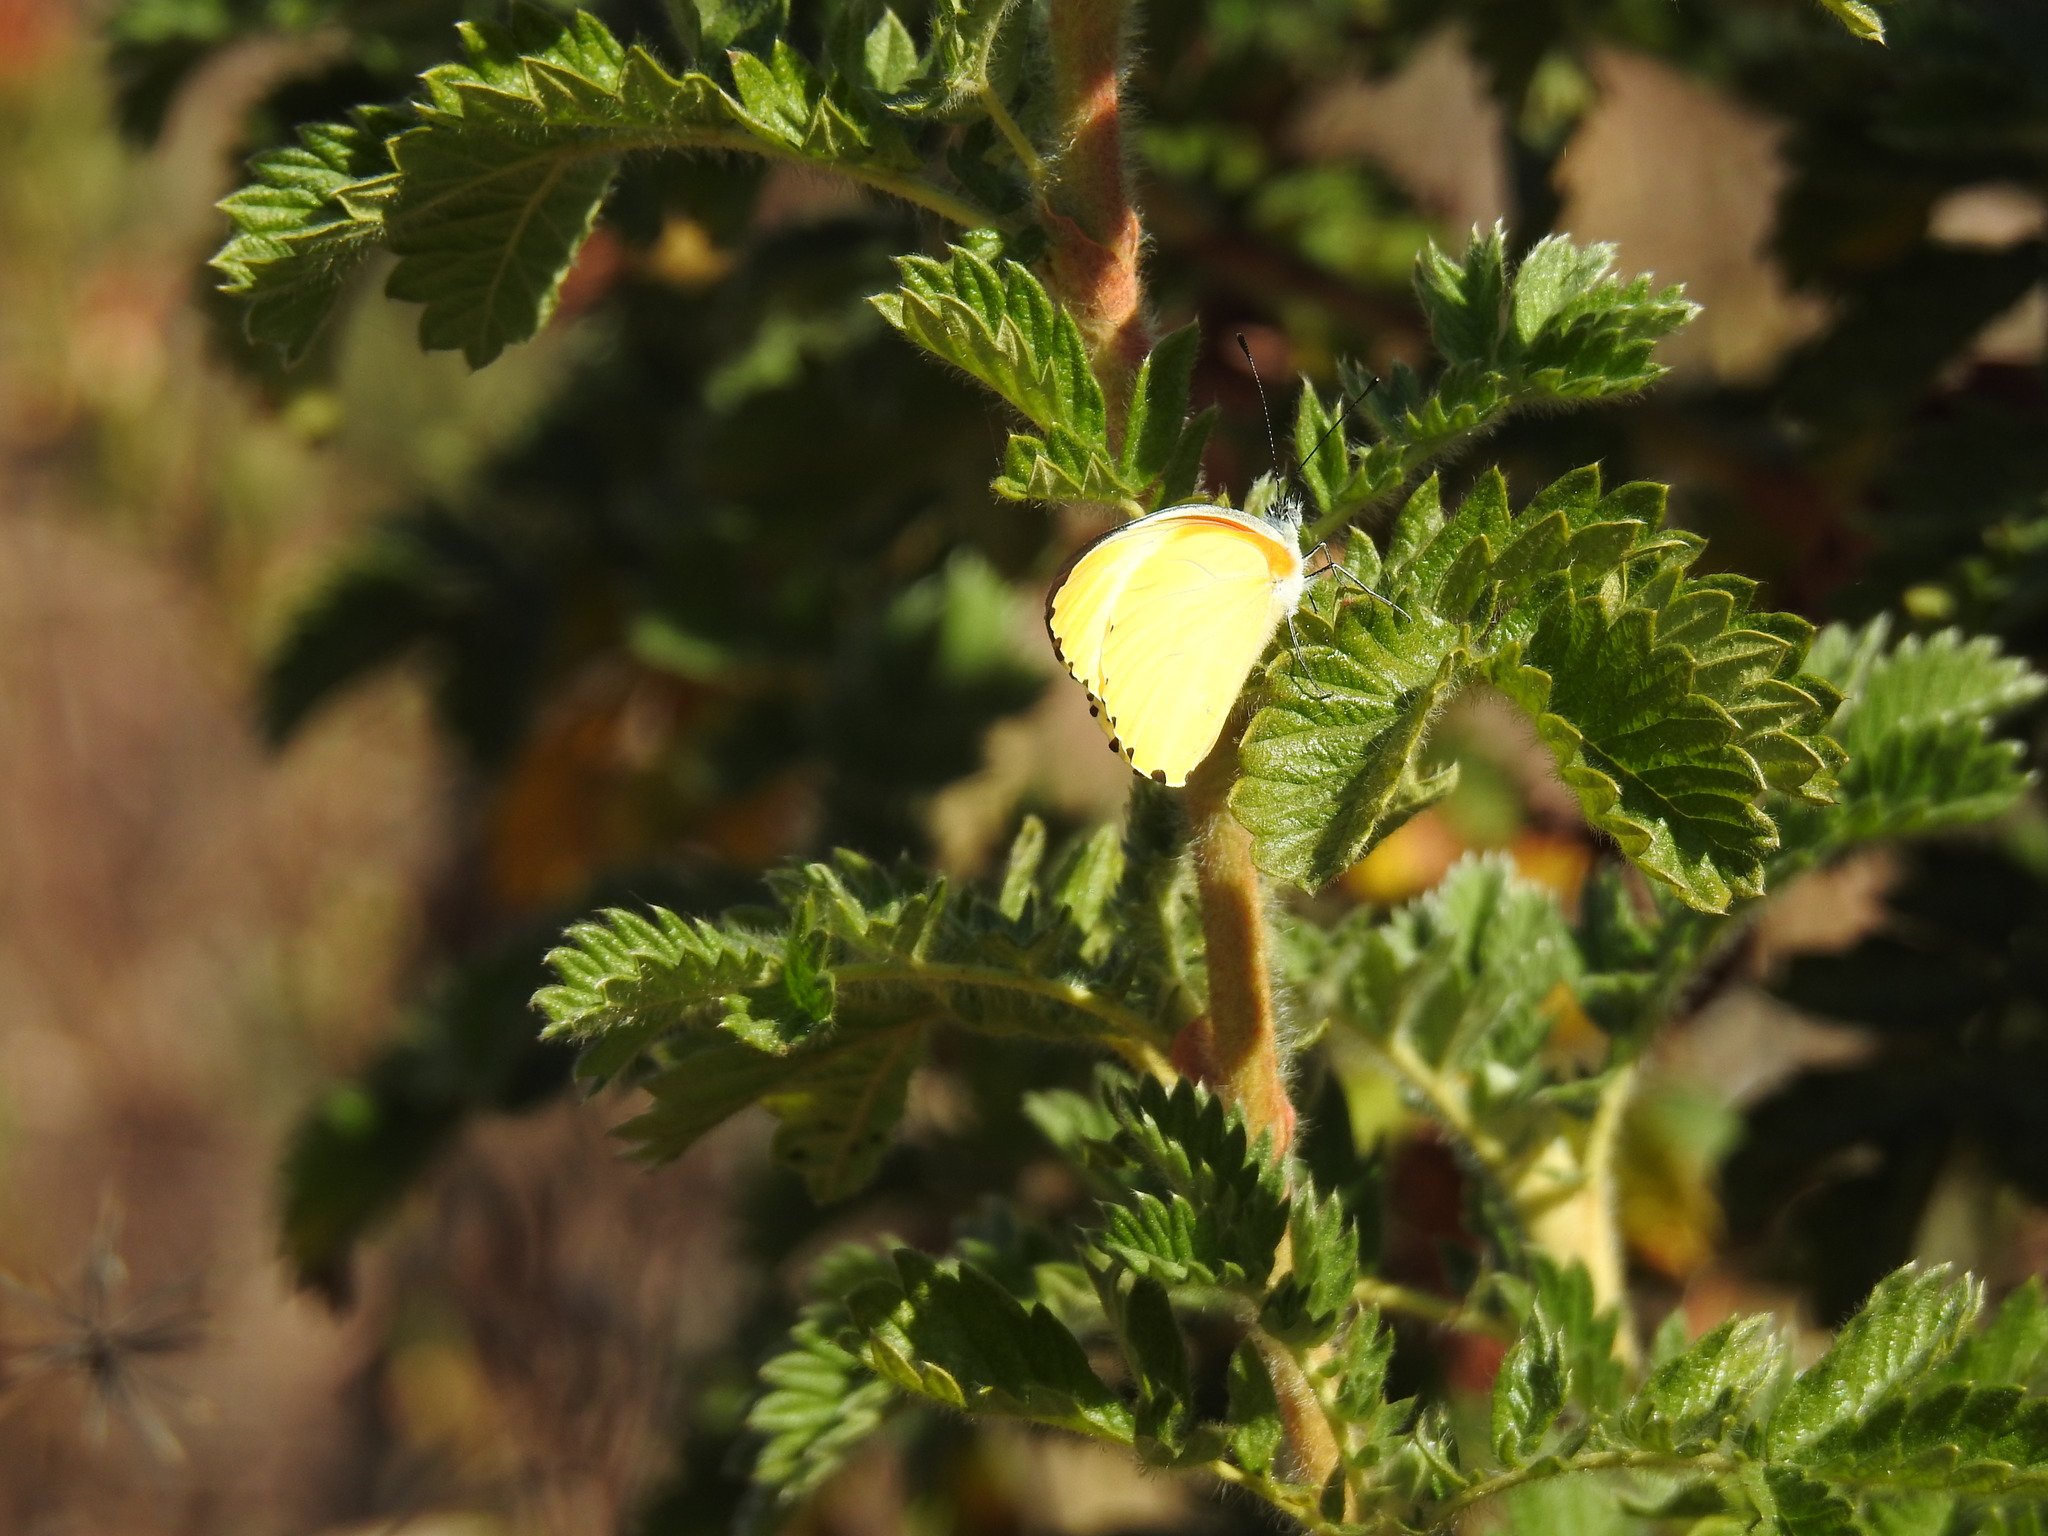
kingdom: Animalia
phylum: Arthropoda
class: Insecta
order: Lepidoptera
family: Pieridae
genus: Mylothris
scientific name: Mylothris agathina
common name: Eastern dotted border
